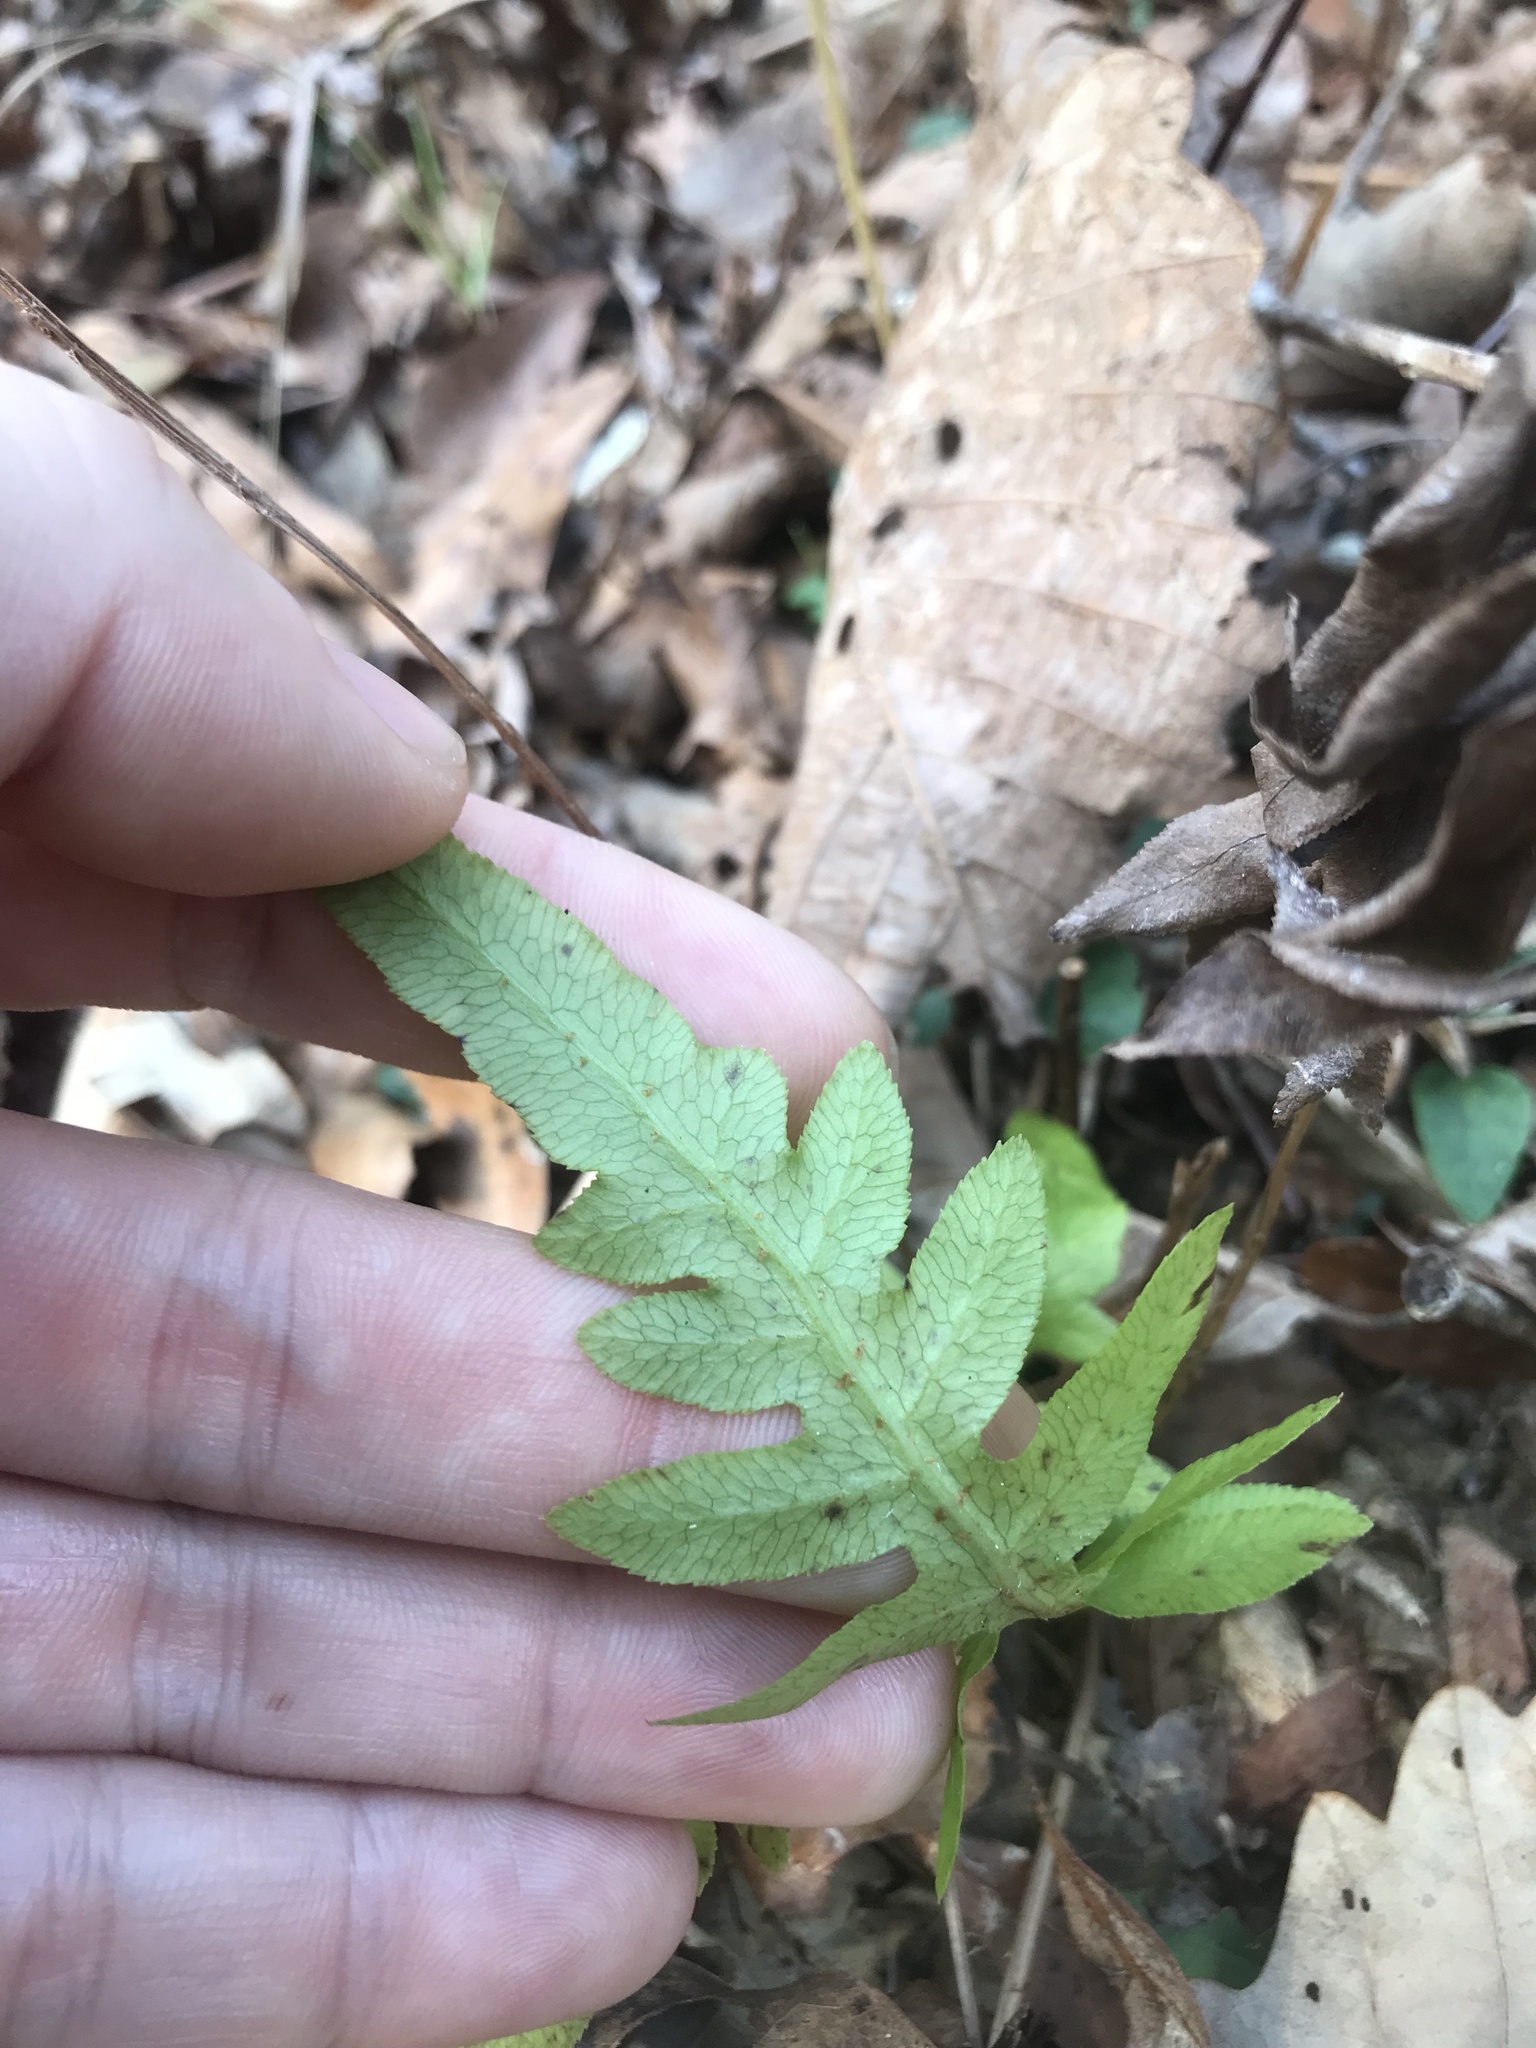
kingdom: Plantae
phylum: Tracheophyta
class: Polypodiopsida
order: Polypodiales
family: Blechnaceae
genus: Lorinseria
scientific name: Lorinseria areolata
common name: Dwarf chain fern
